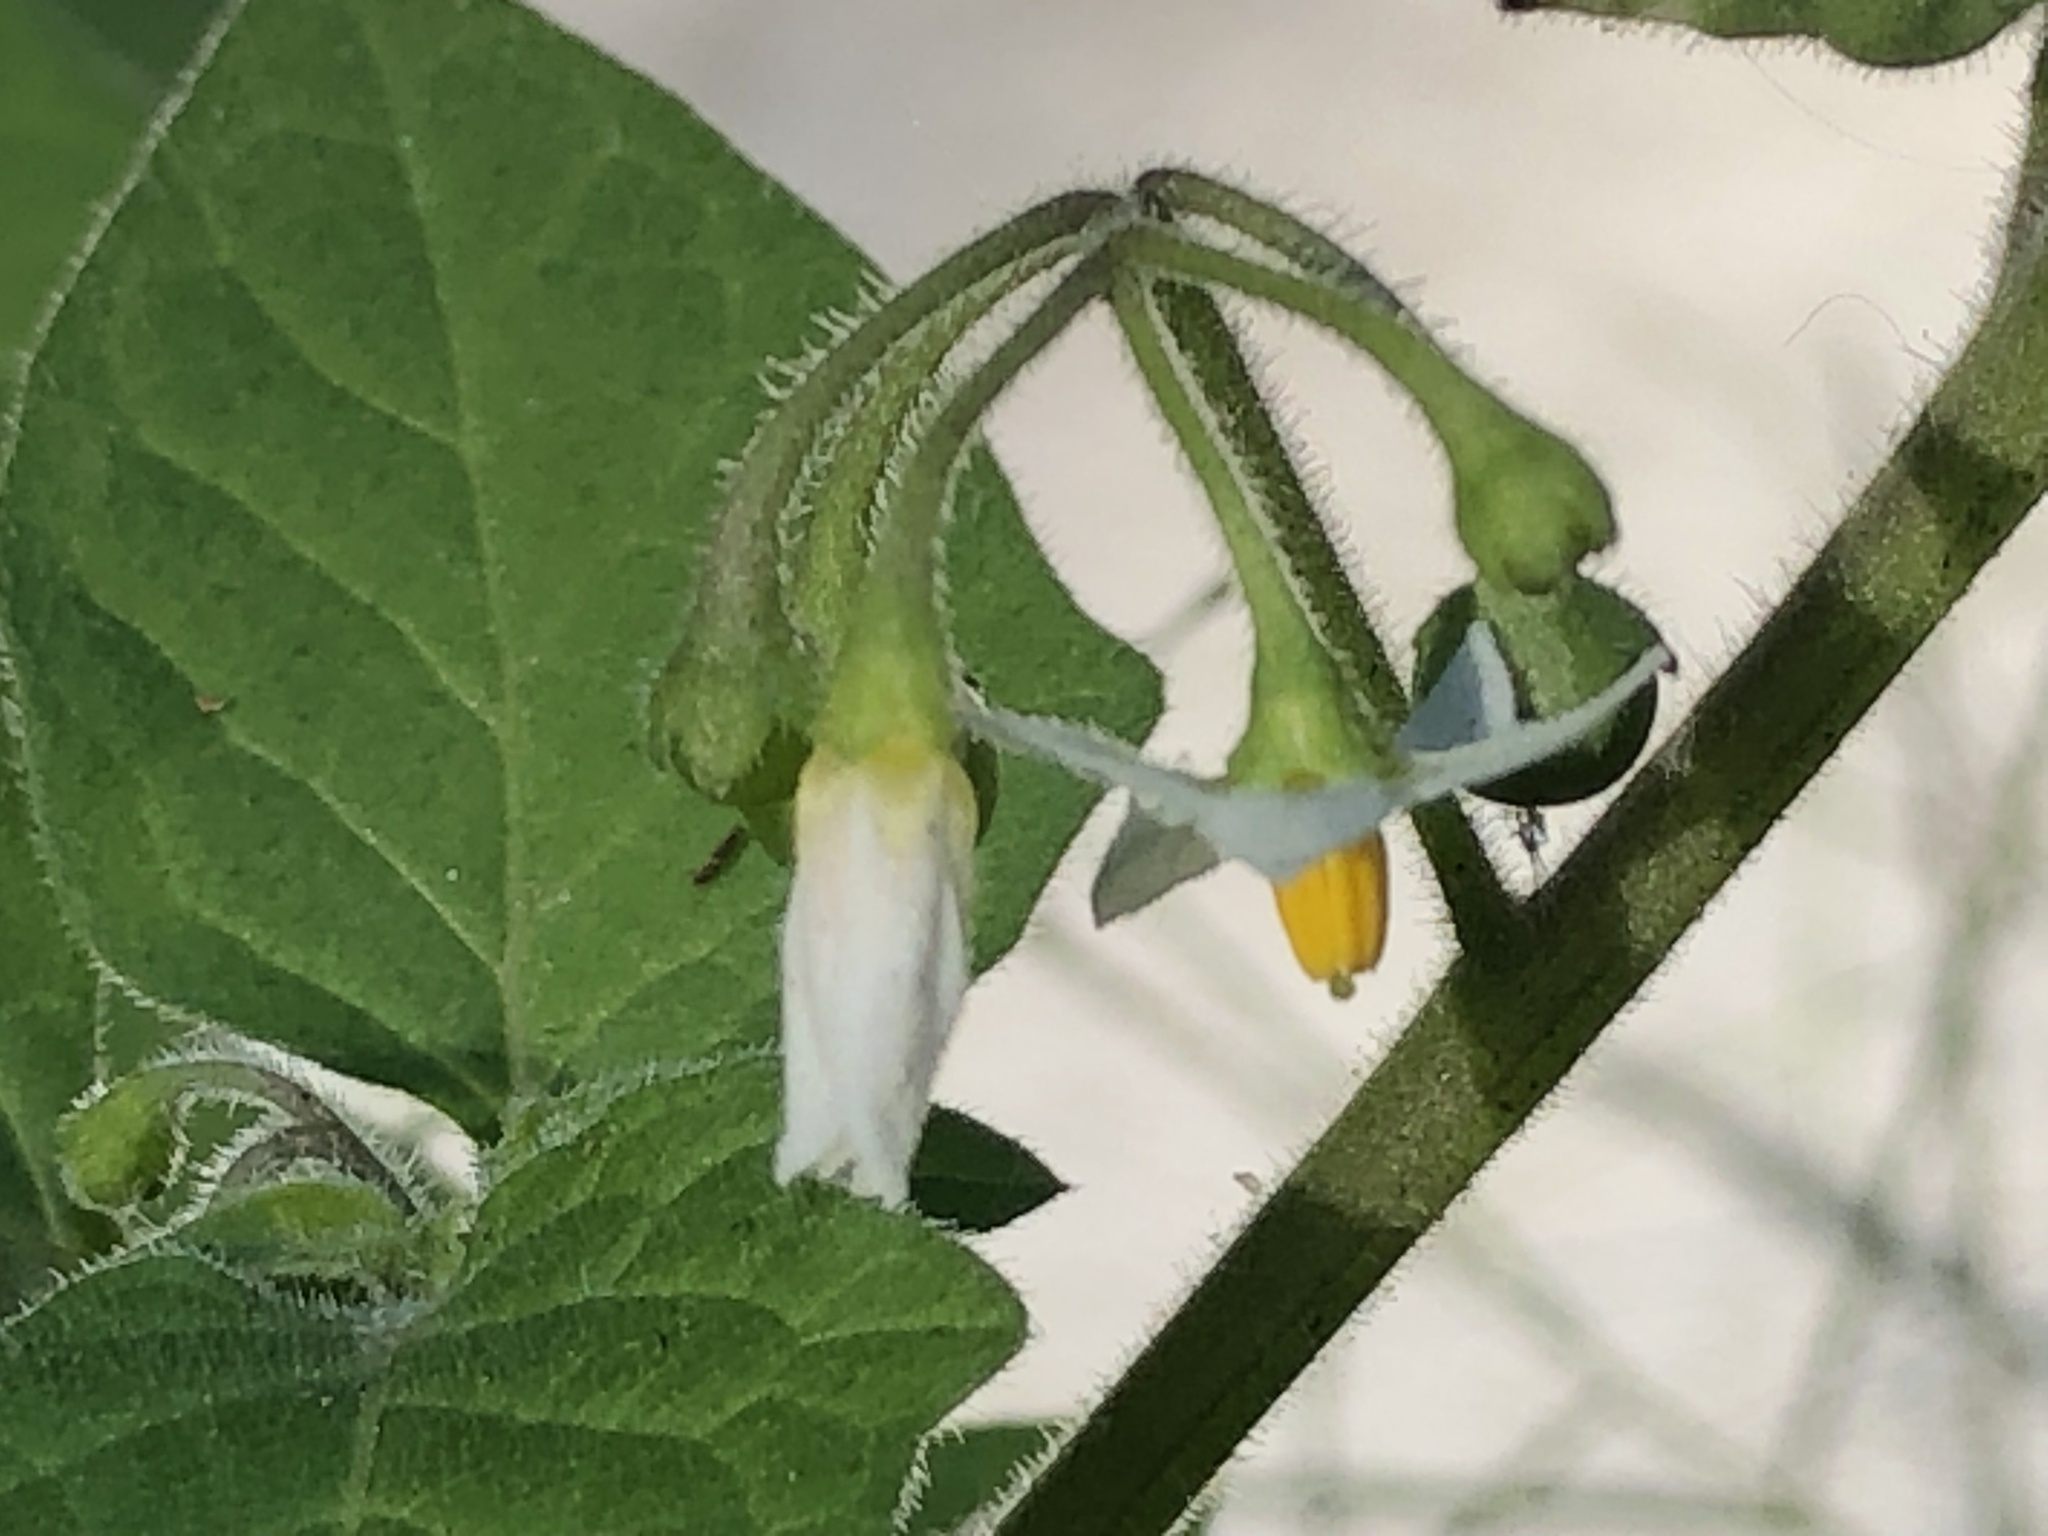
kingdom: Plantae
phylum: Tracheophyta
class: Magnoliopsida
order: Solanales
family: Solanaceae
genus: Solanum
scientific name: Solanum nigrum
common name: Black nightshade
